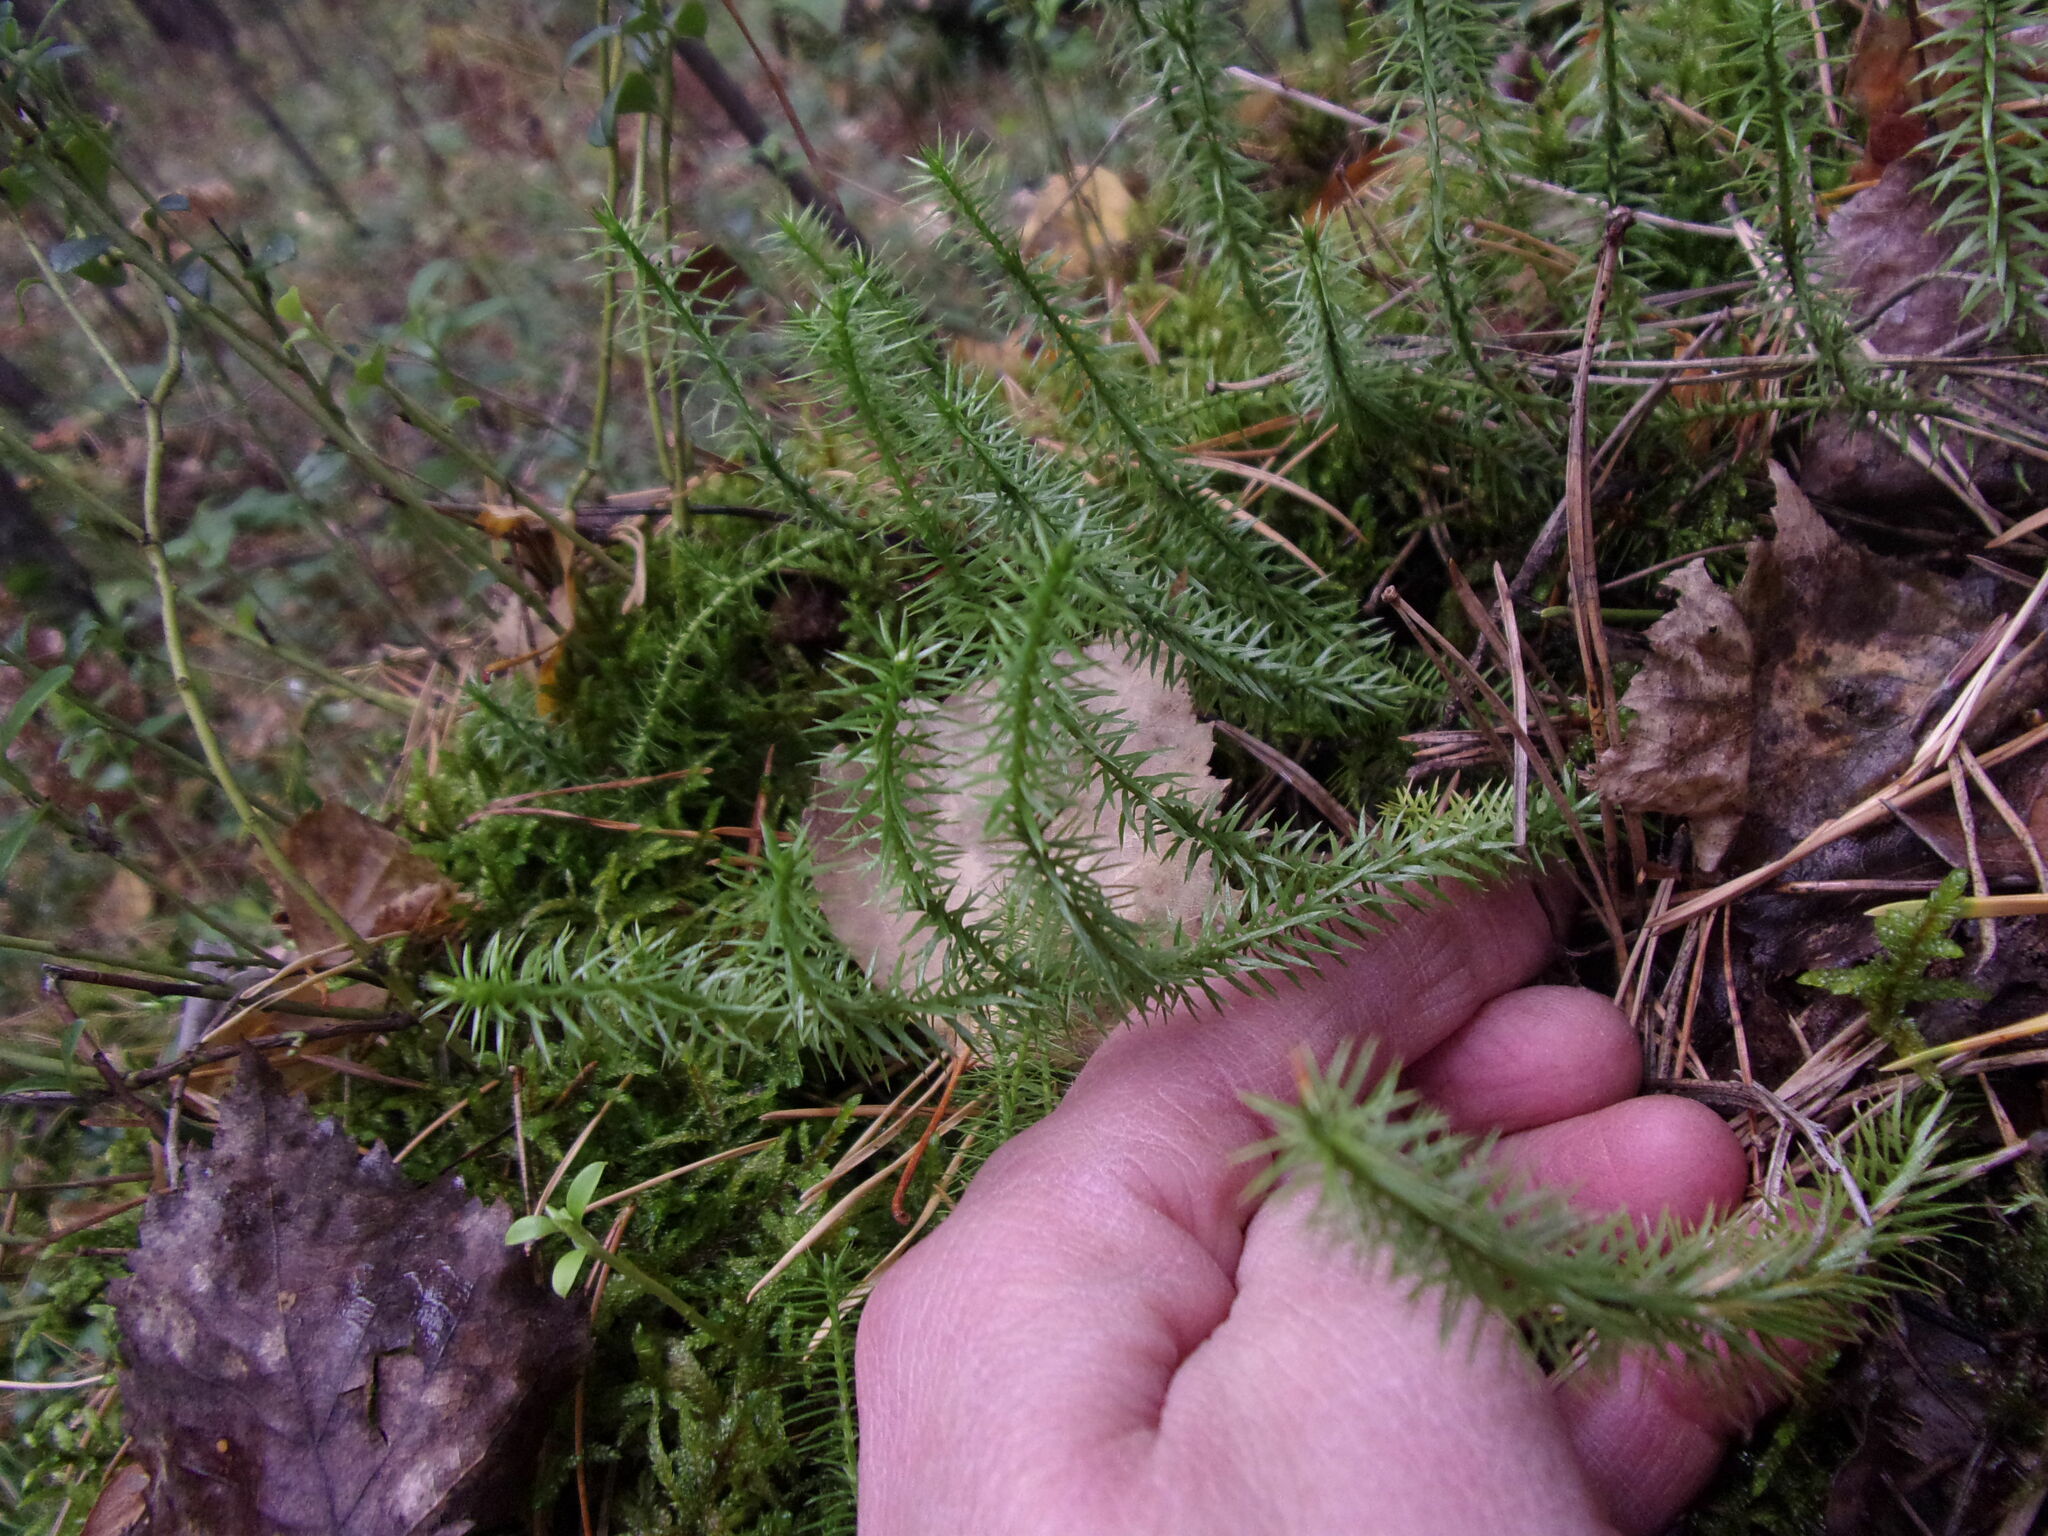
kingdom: Plantae
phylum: Tracheophyta
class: Lycopodiopsida
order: Lycopodiales
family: Lycopodiaceae
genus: Spinulum
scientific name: Spinulum annotinum
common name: Interrupted club-moss
